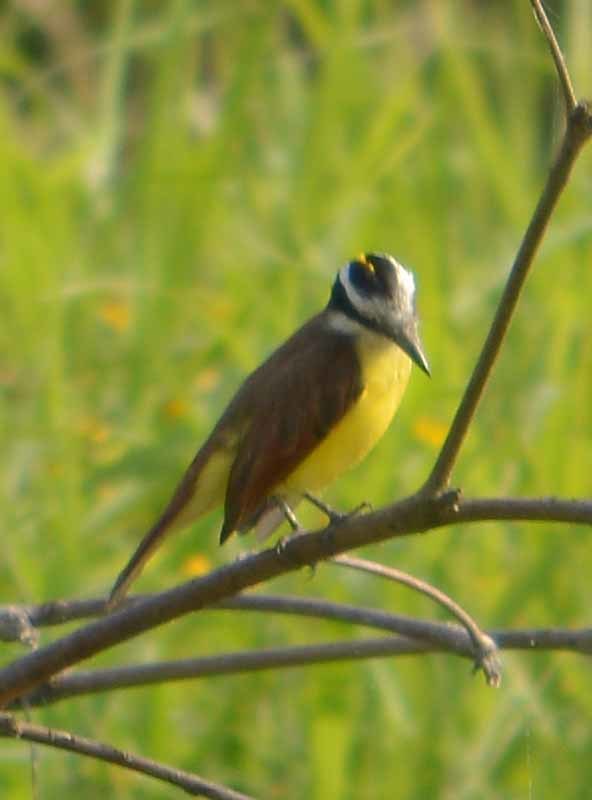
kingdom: Animalia
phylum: Chordata
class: Aves
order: Passeriformes
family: Tyrannidae
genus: Pitangus
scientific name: Pitangus sulphuratus
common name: Great kiskadee
